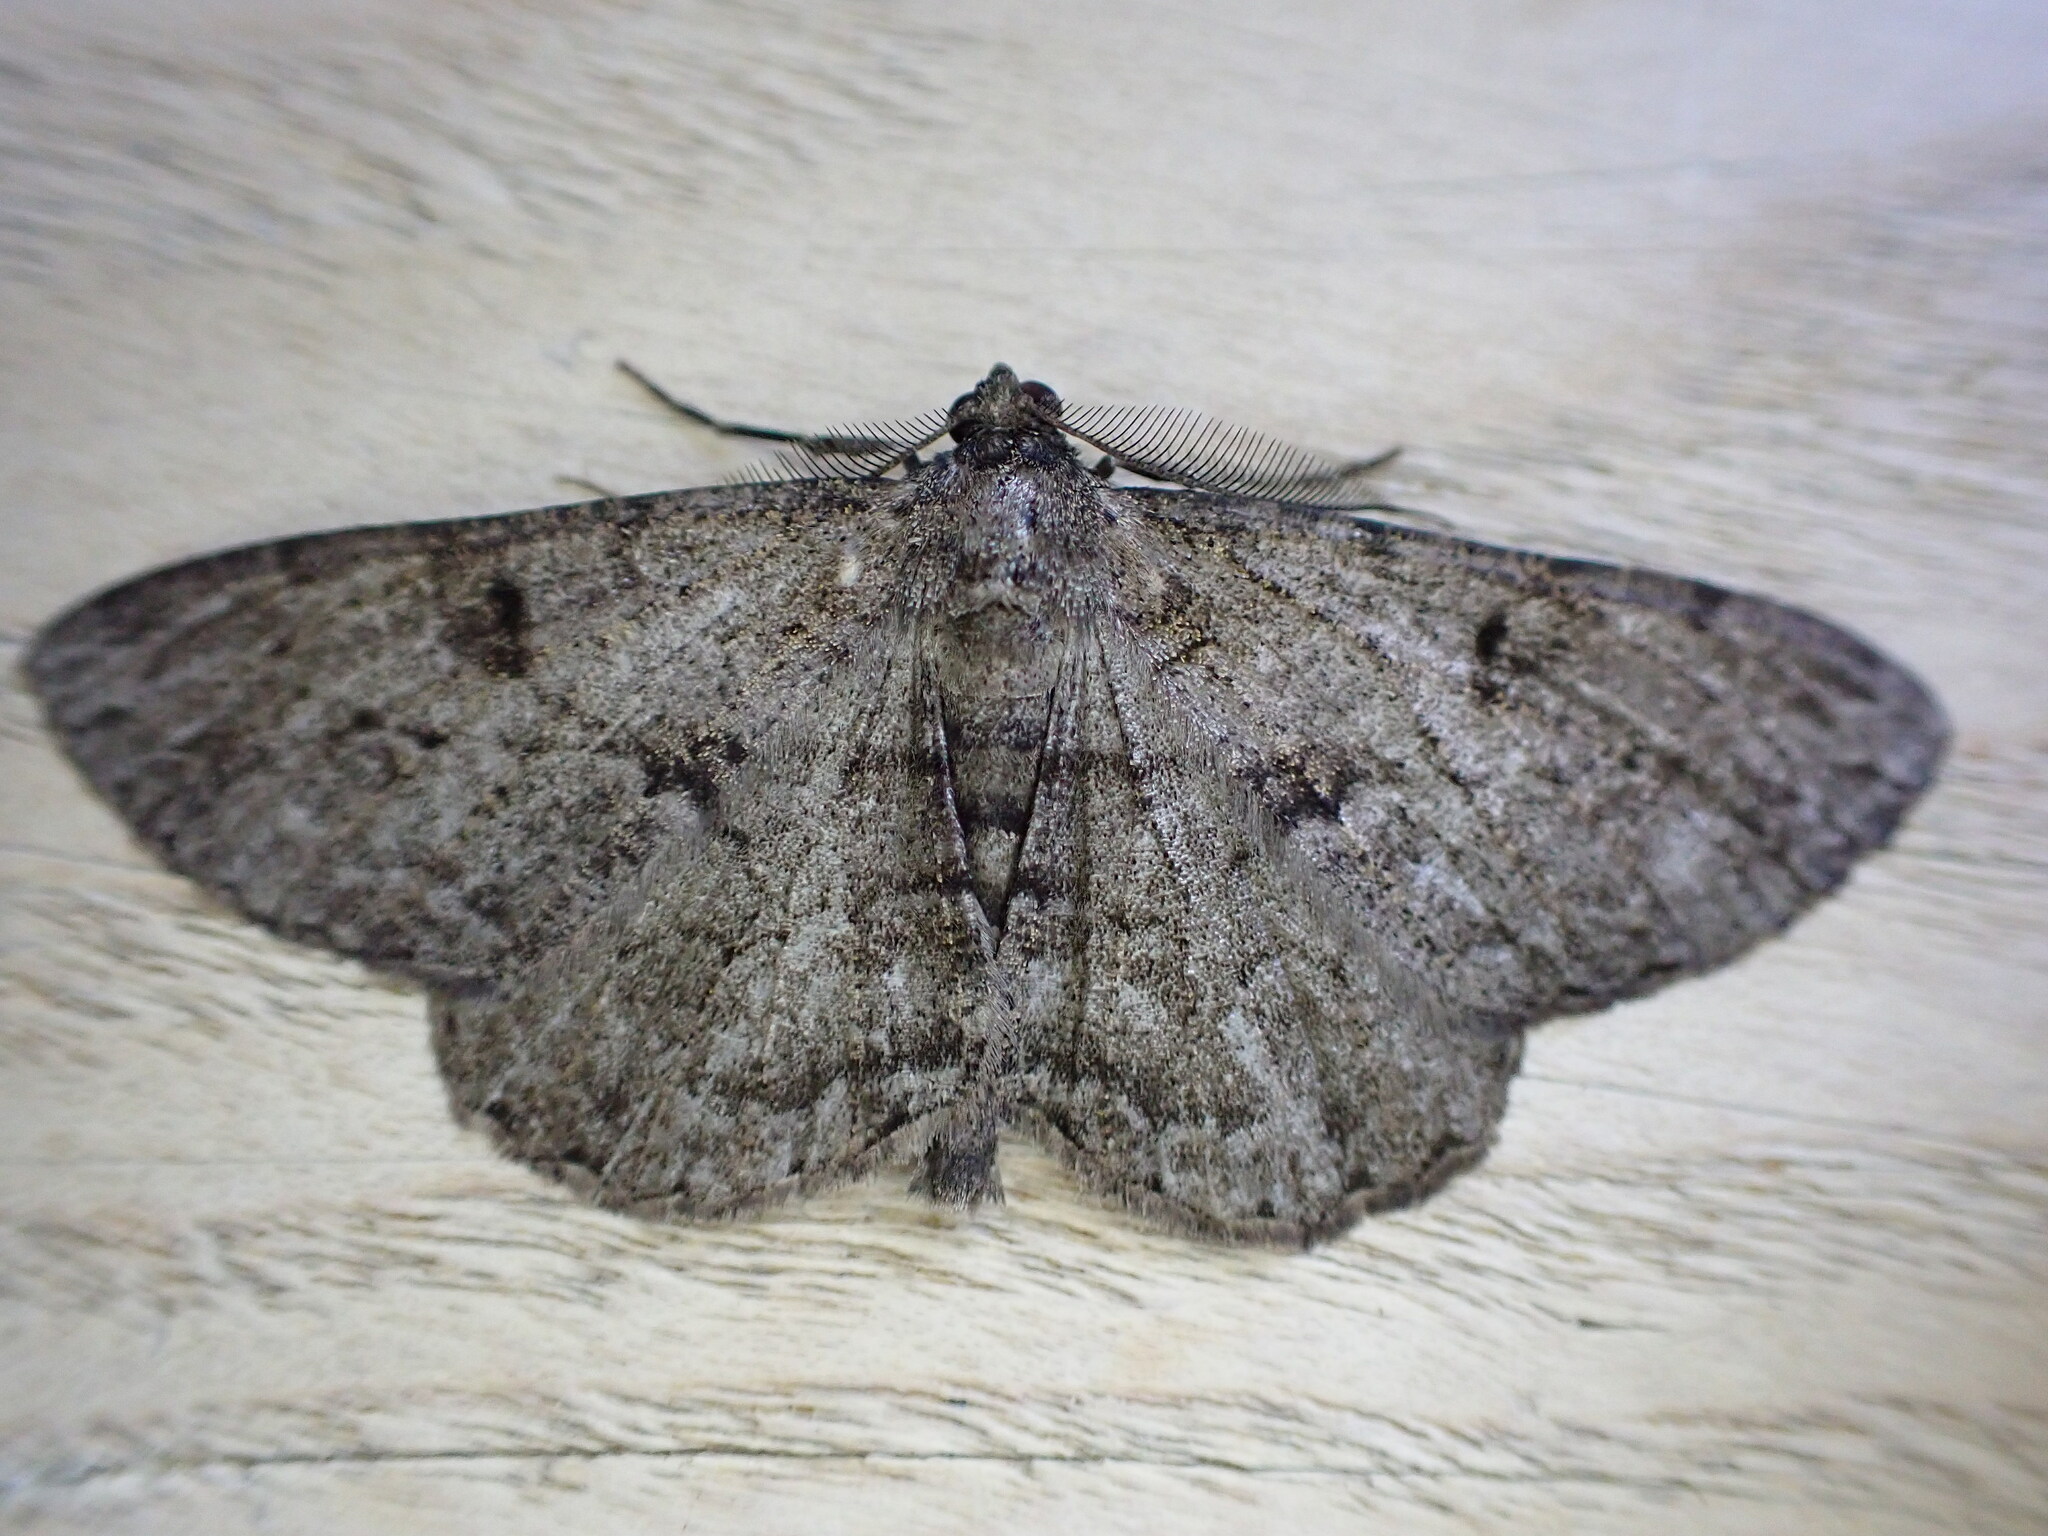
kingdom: Animalia
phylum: Arthropoda
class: Insecta
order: Lepidoptera
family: Geometridae
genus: Peribatodes
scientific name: Peribatodes rhomboidaria
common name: Willow beauty
